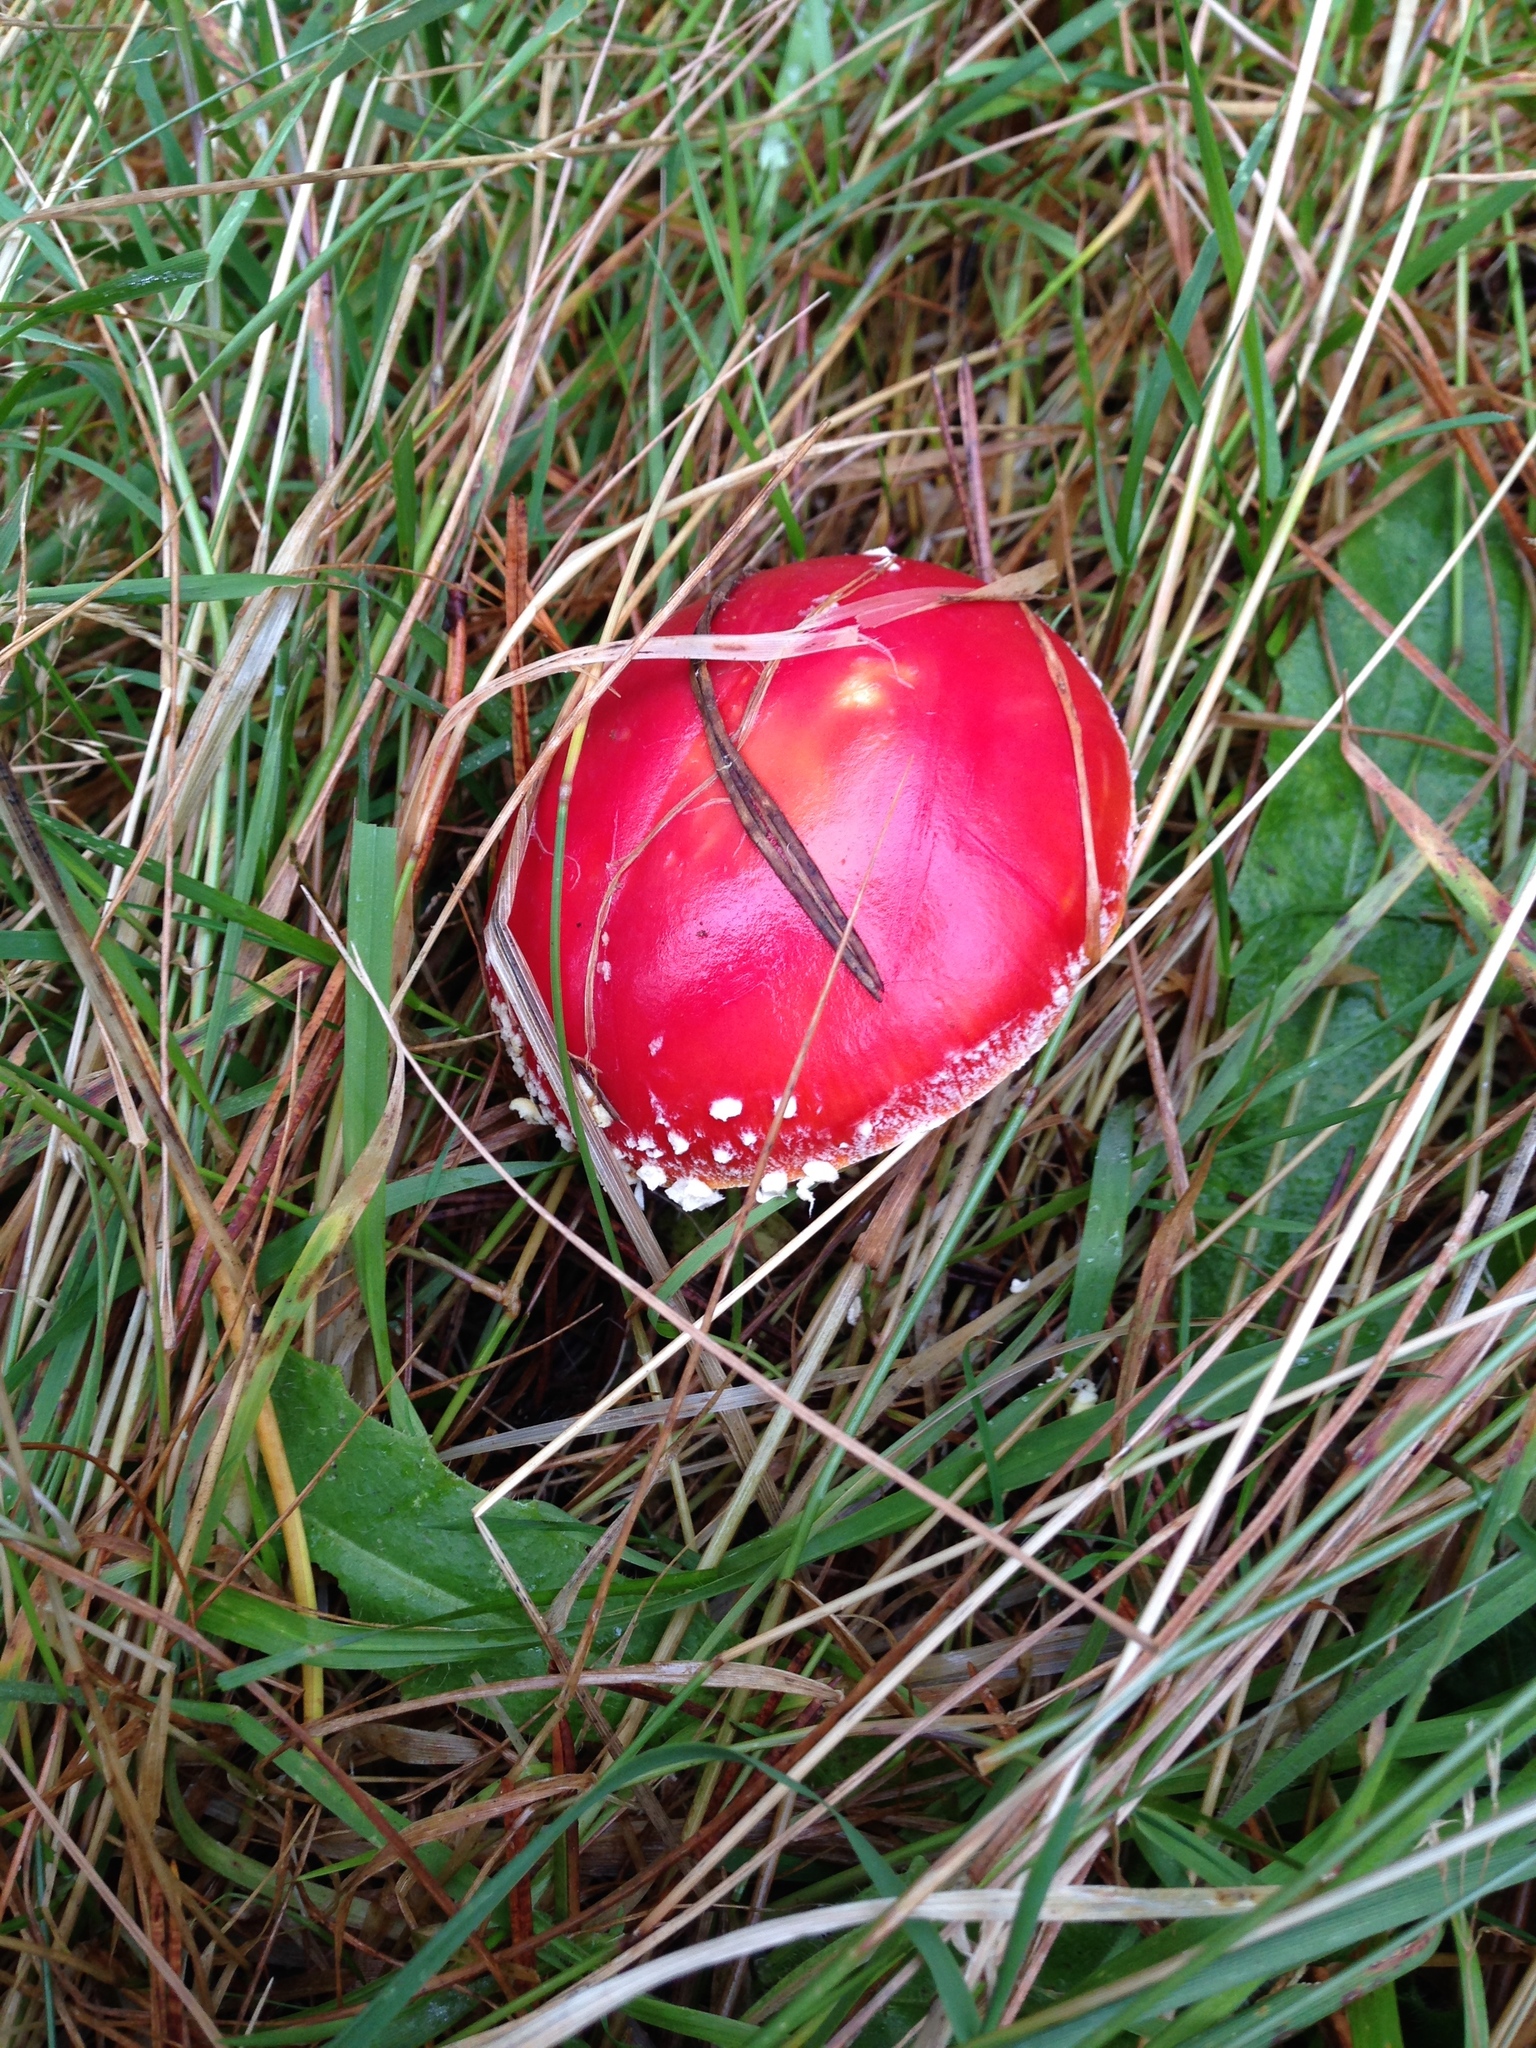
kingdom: Fungi
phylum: Basidiomycota
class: Agaricomycetes
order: Agaricales
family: Amanitaceae
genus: Amanita
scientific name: Amanita muscaria
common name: Fly agaric
